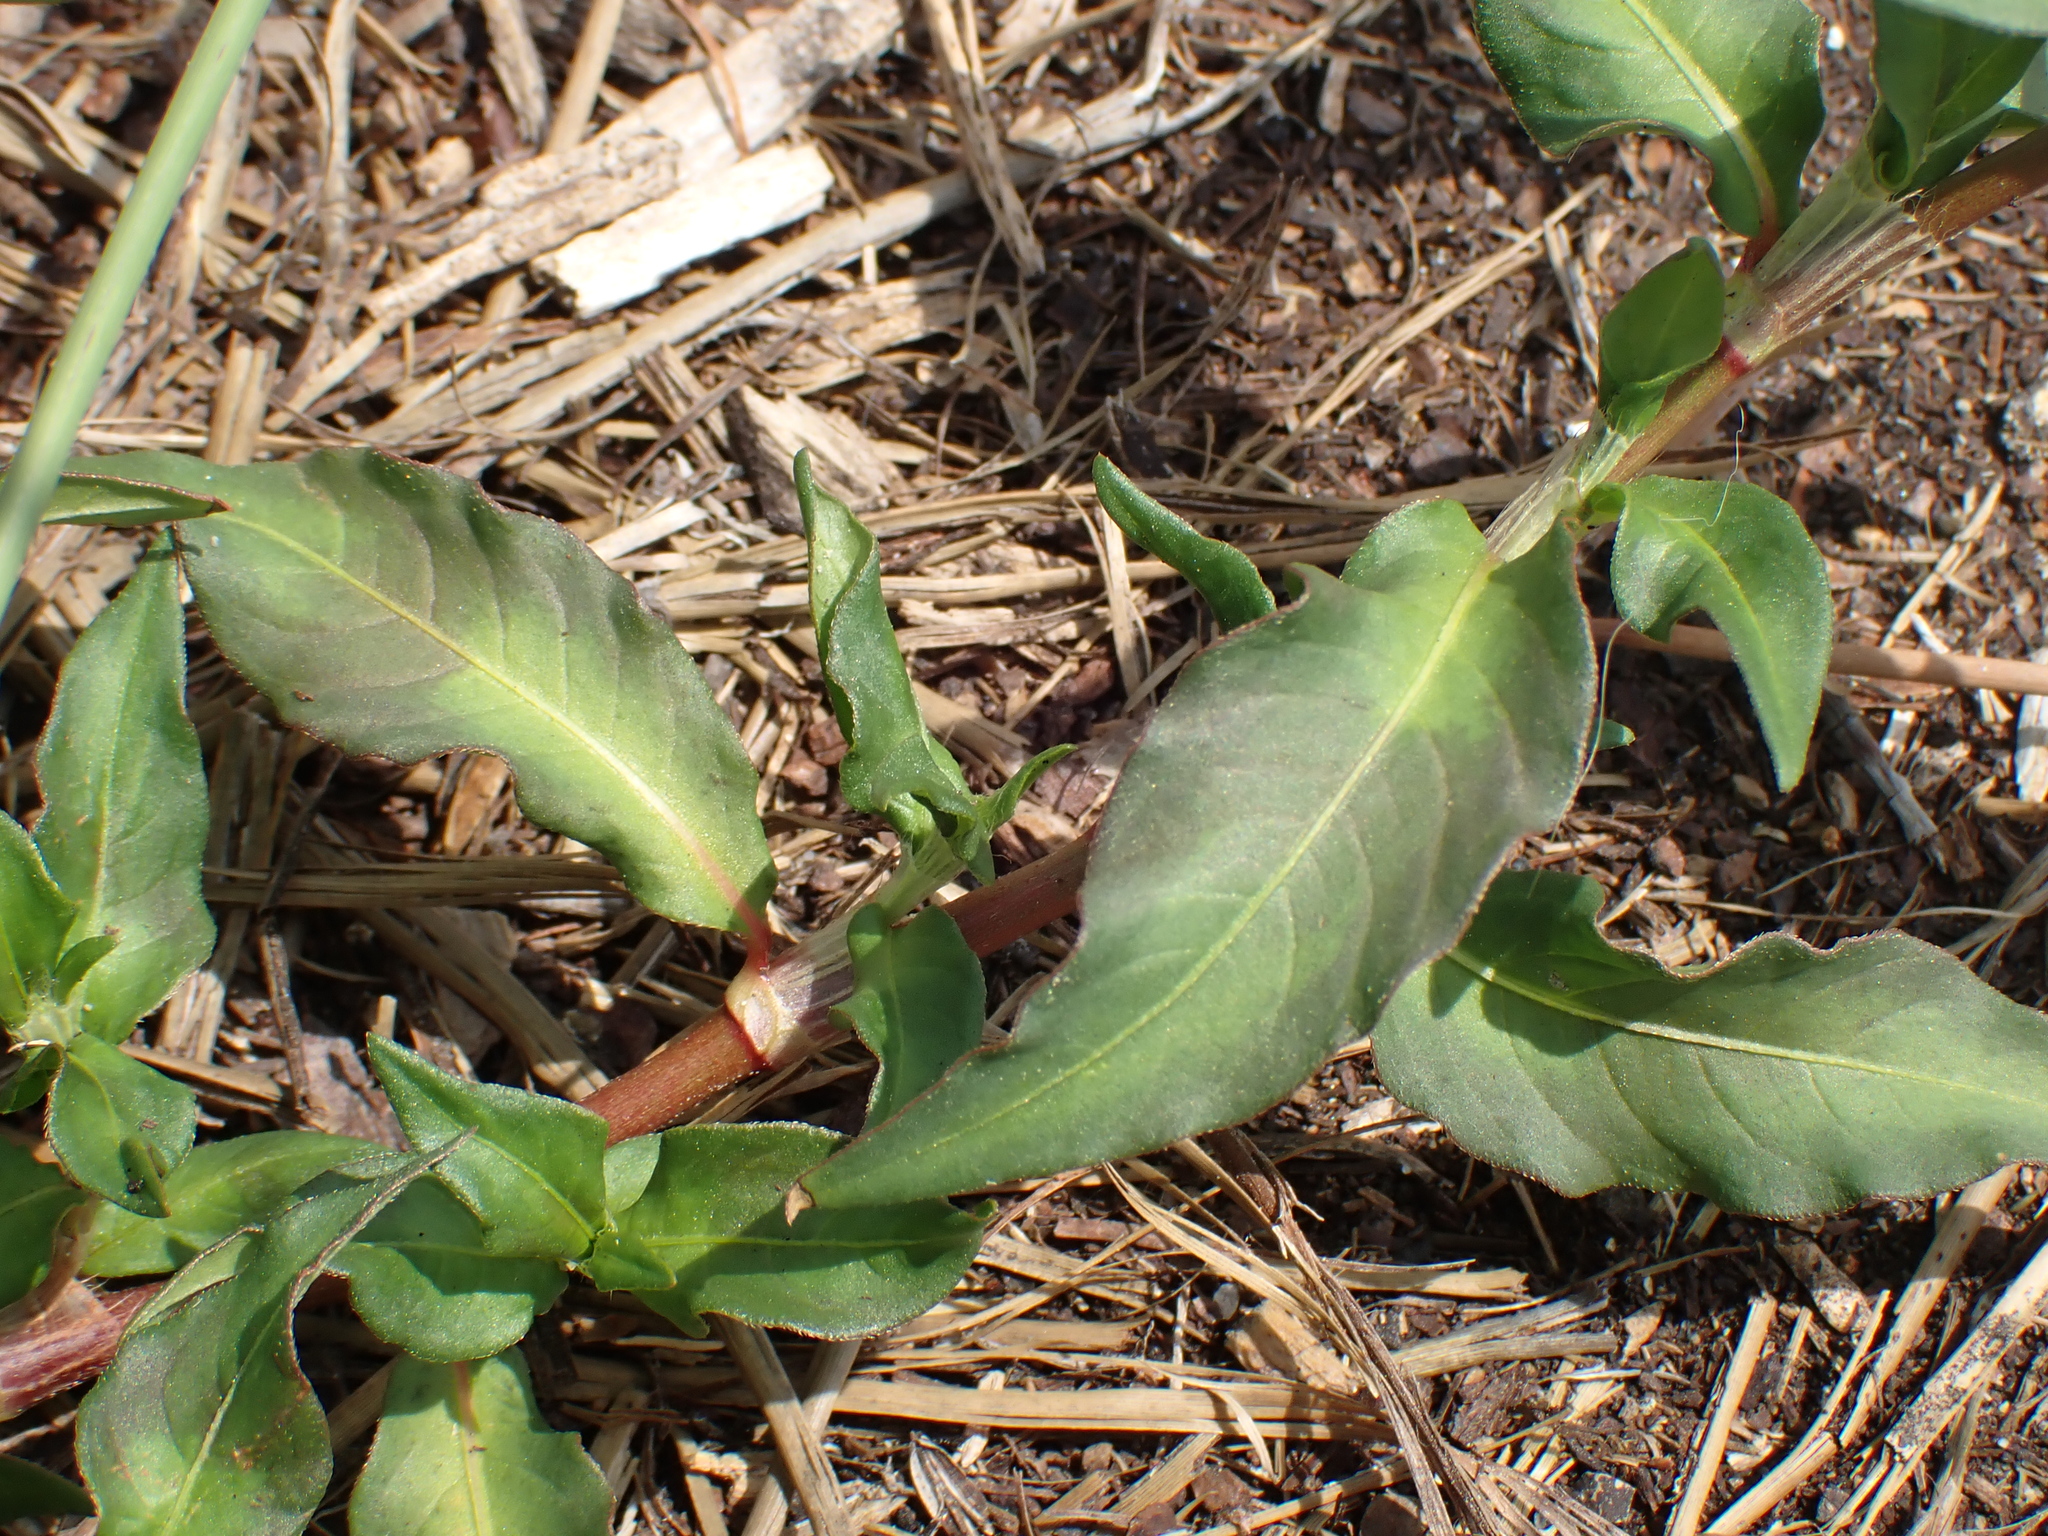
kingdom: Plantae
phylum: Tracheophyta
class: Magnoliopsida
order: Caryophyllales
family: Polygonaceae
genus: Persicaria
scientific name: Persicaria maculosa
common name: Redshank
